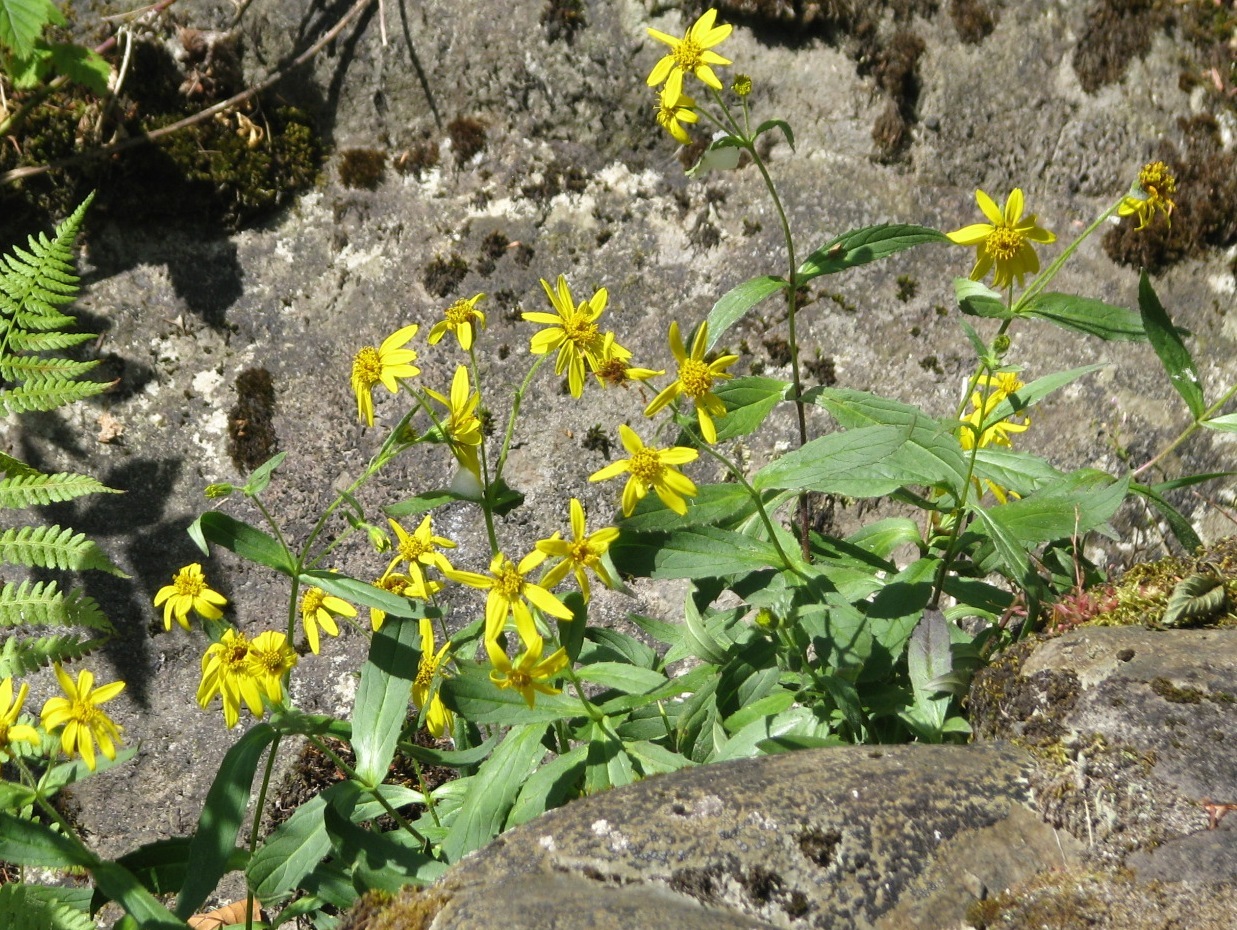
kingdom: Plantae
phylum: Tracheophyta
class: Magnoliopsida
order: Asterales
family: Asteraceae
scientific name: Asteraceae
